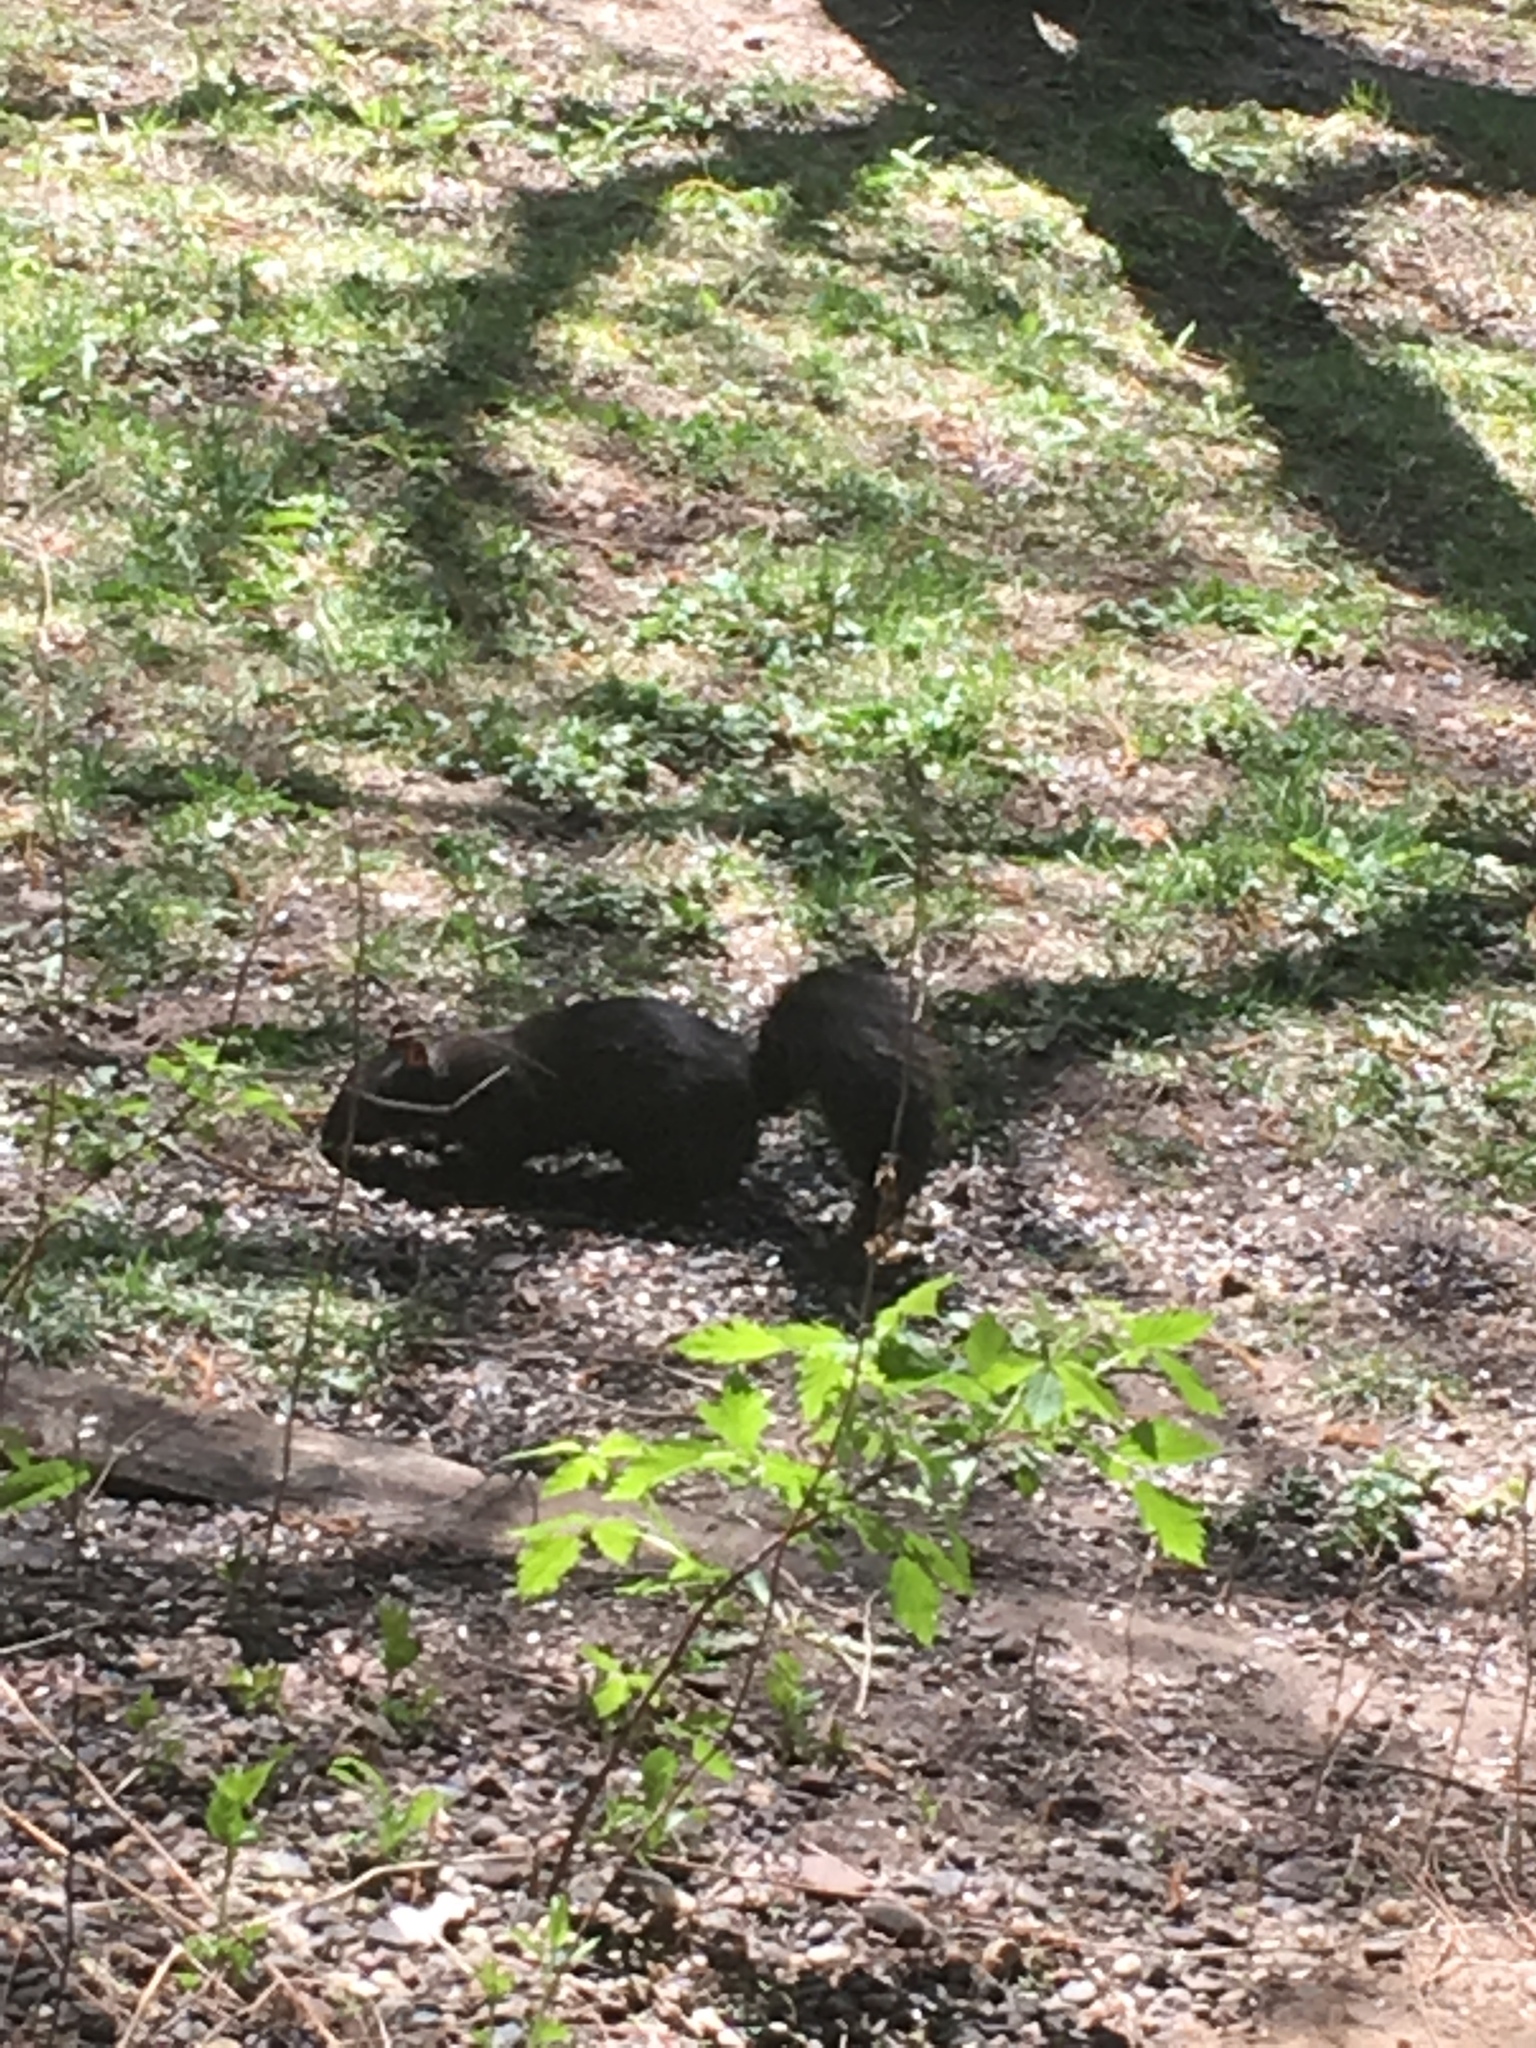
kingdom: Animalia
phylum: Chordata
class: Mammalia
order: Rodentia
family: Sciuridae
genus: Sciurus
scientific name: Sciurus carolinensis
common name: Eastern gray squirrel
